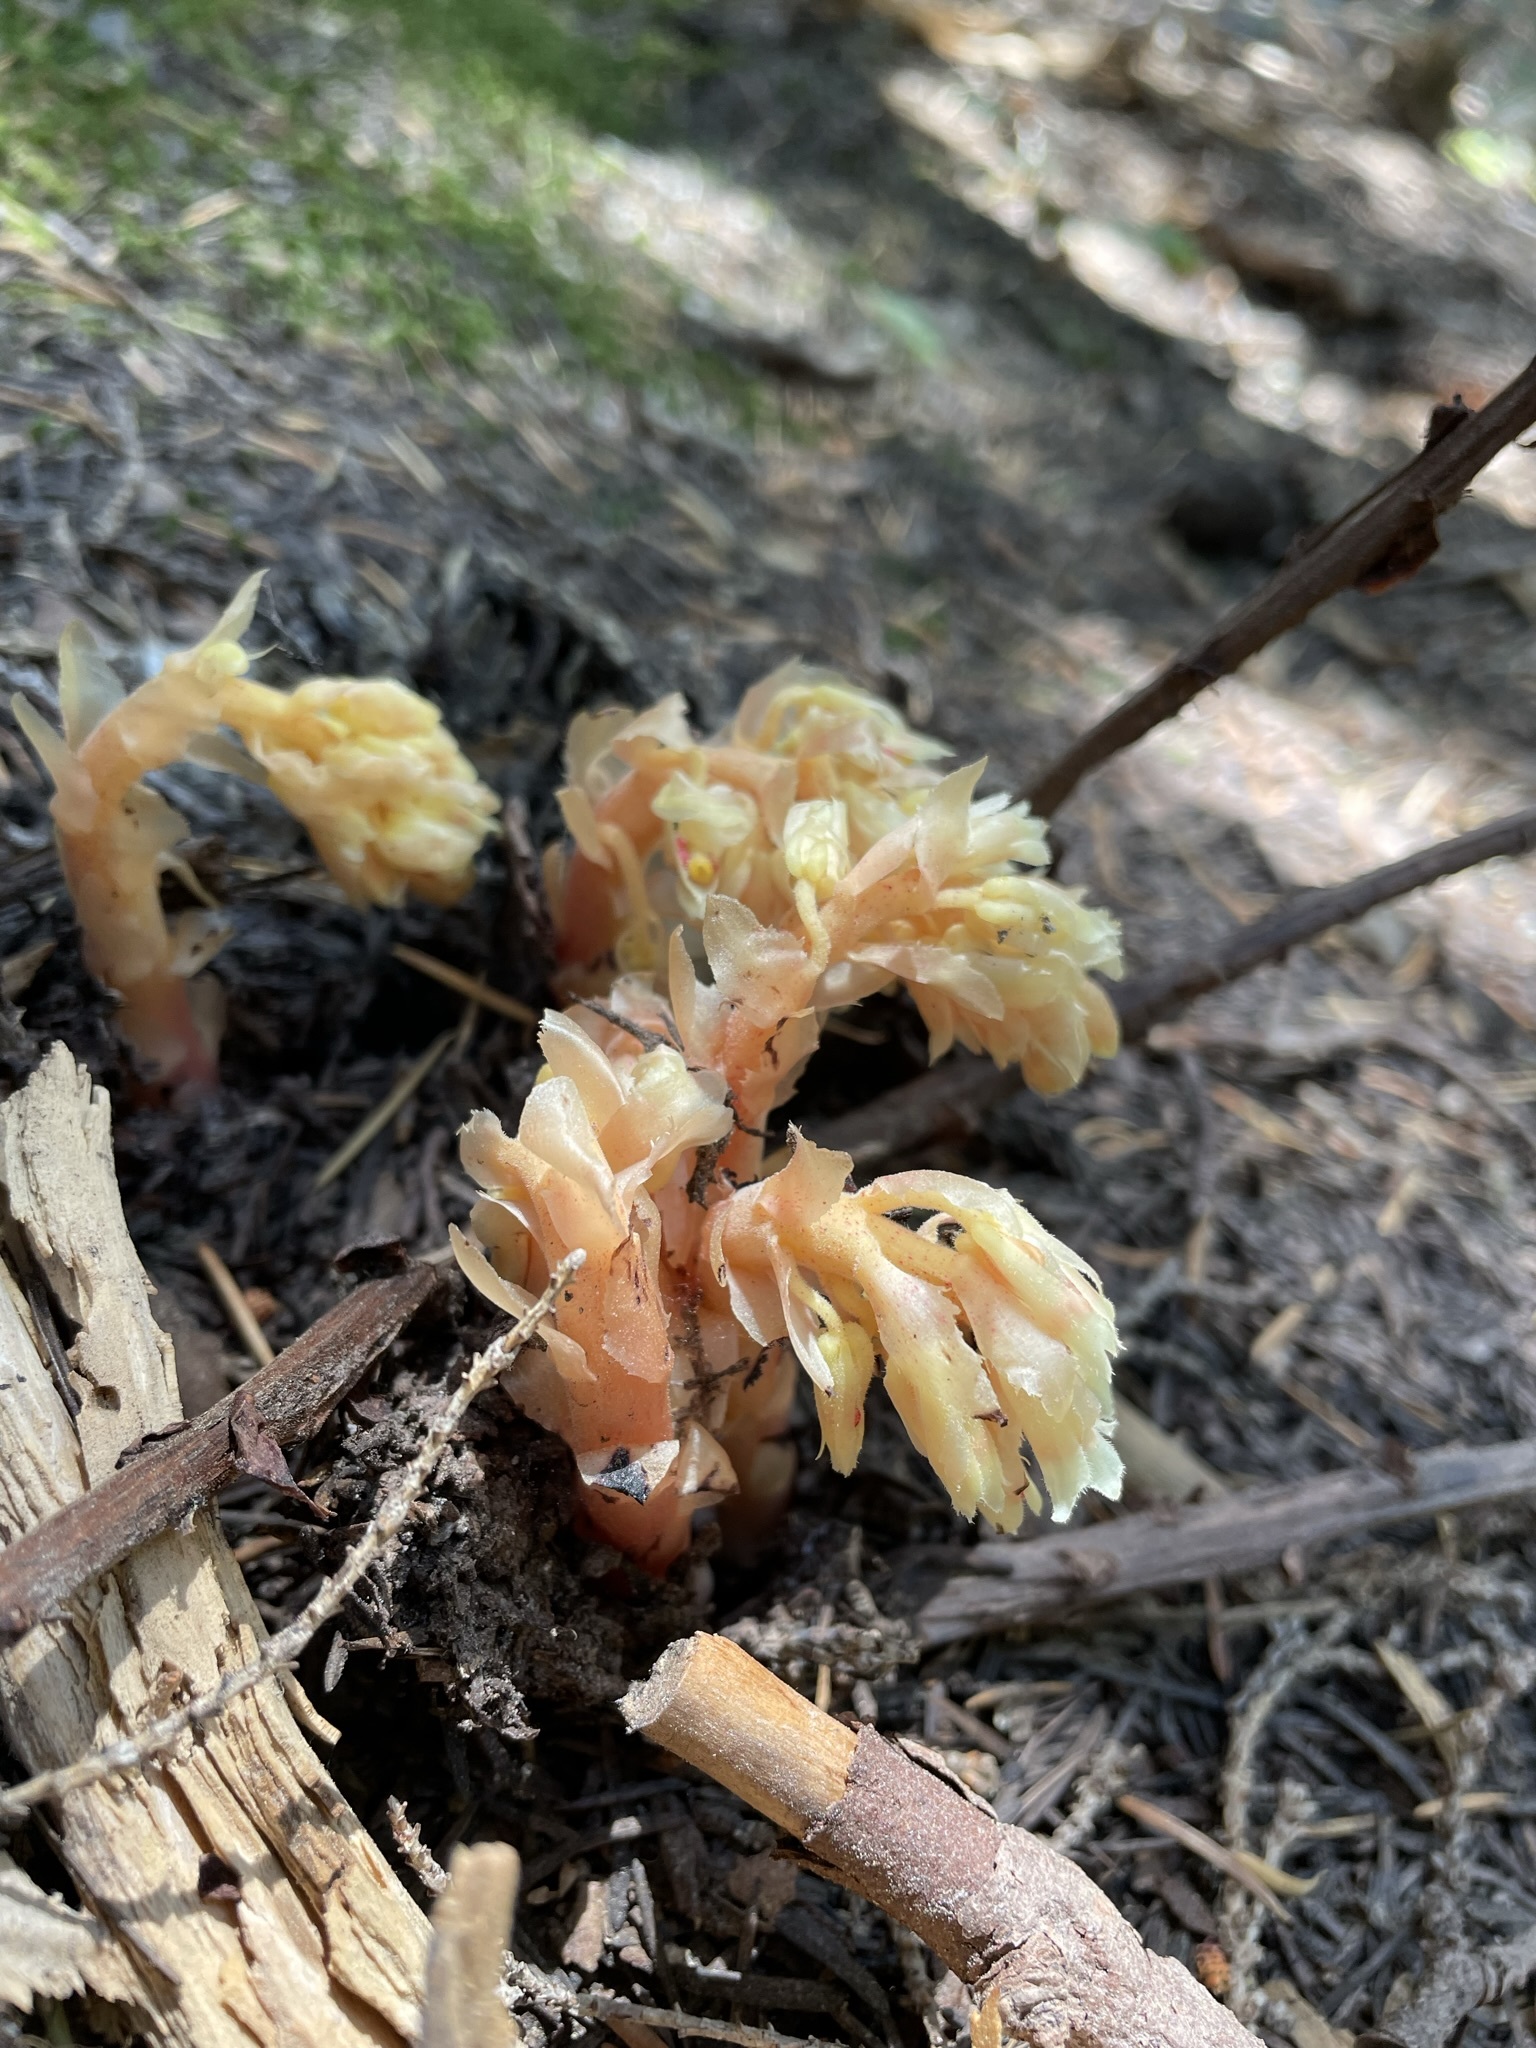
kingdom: Plantae
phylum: Tracheophyta
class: Magnoliopsida
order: Ericales
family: Ericaceae
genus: Hypopitys
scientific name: Hypopitys monotropa
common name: Yellow bird's-nest
